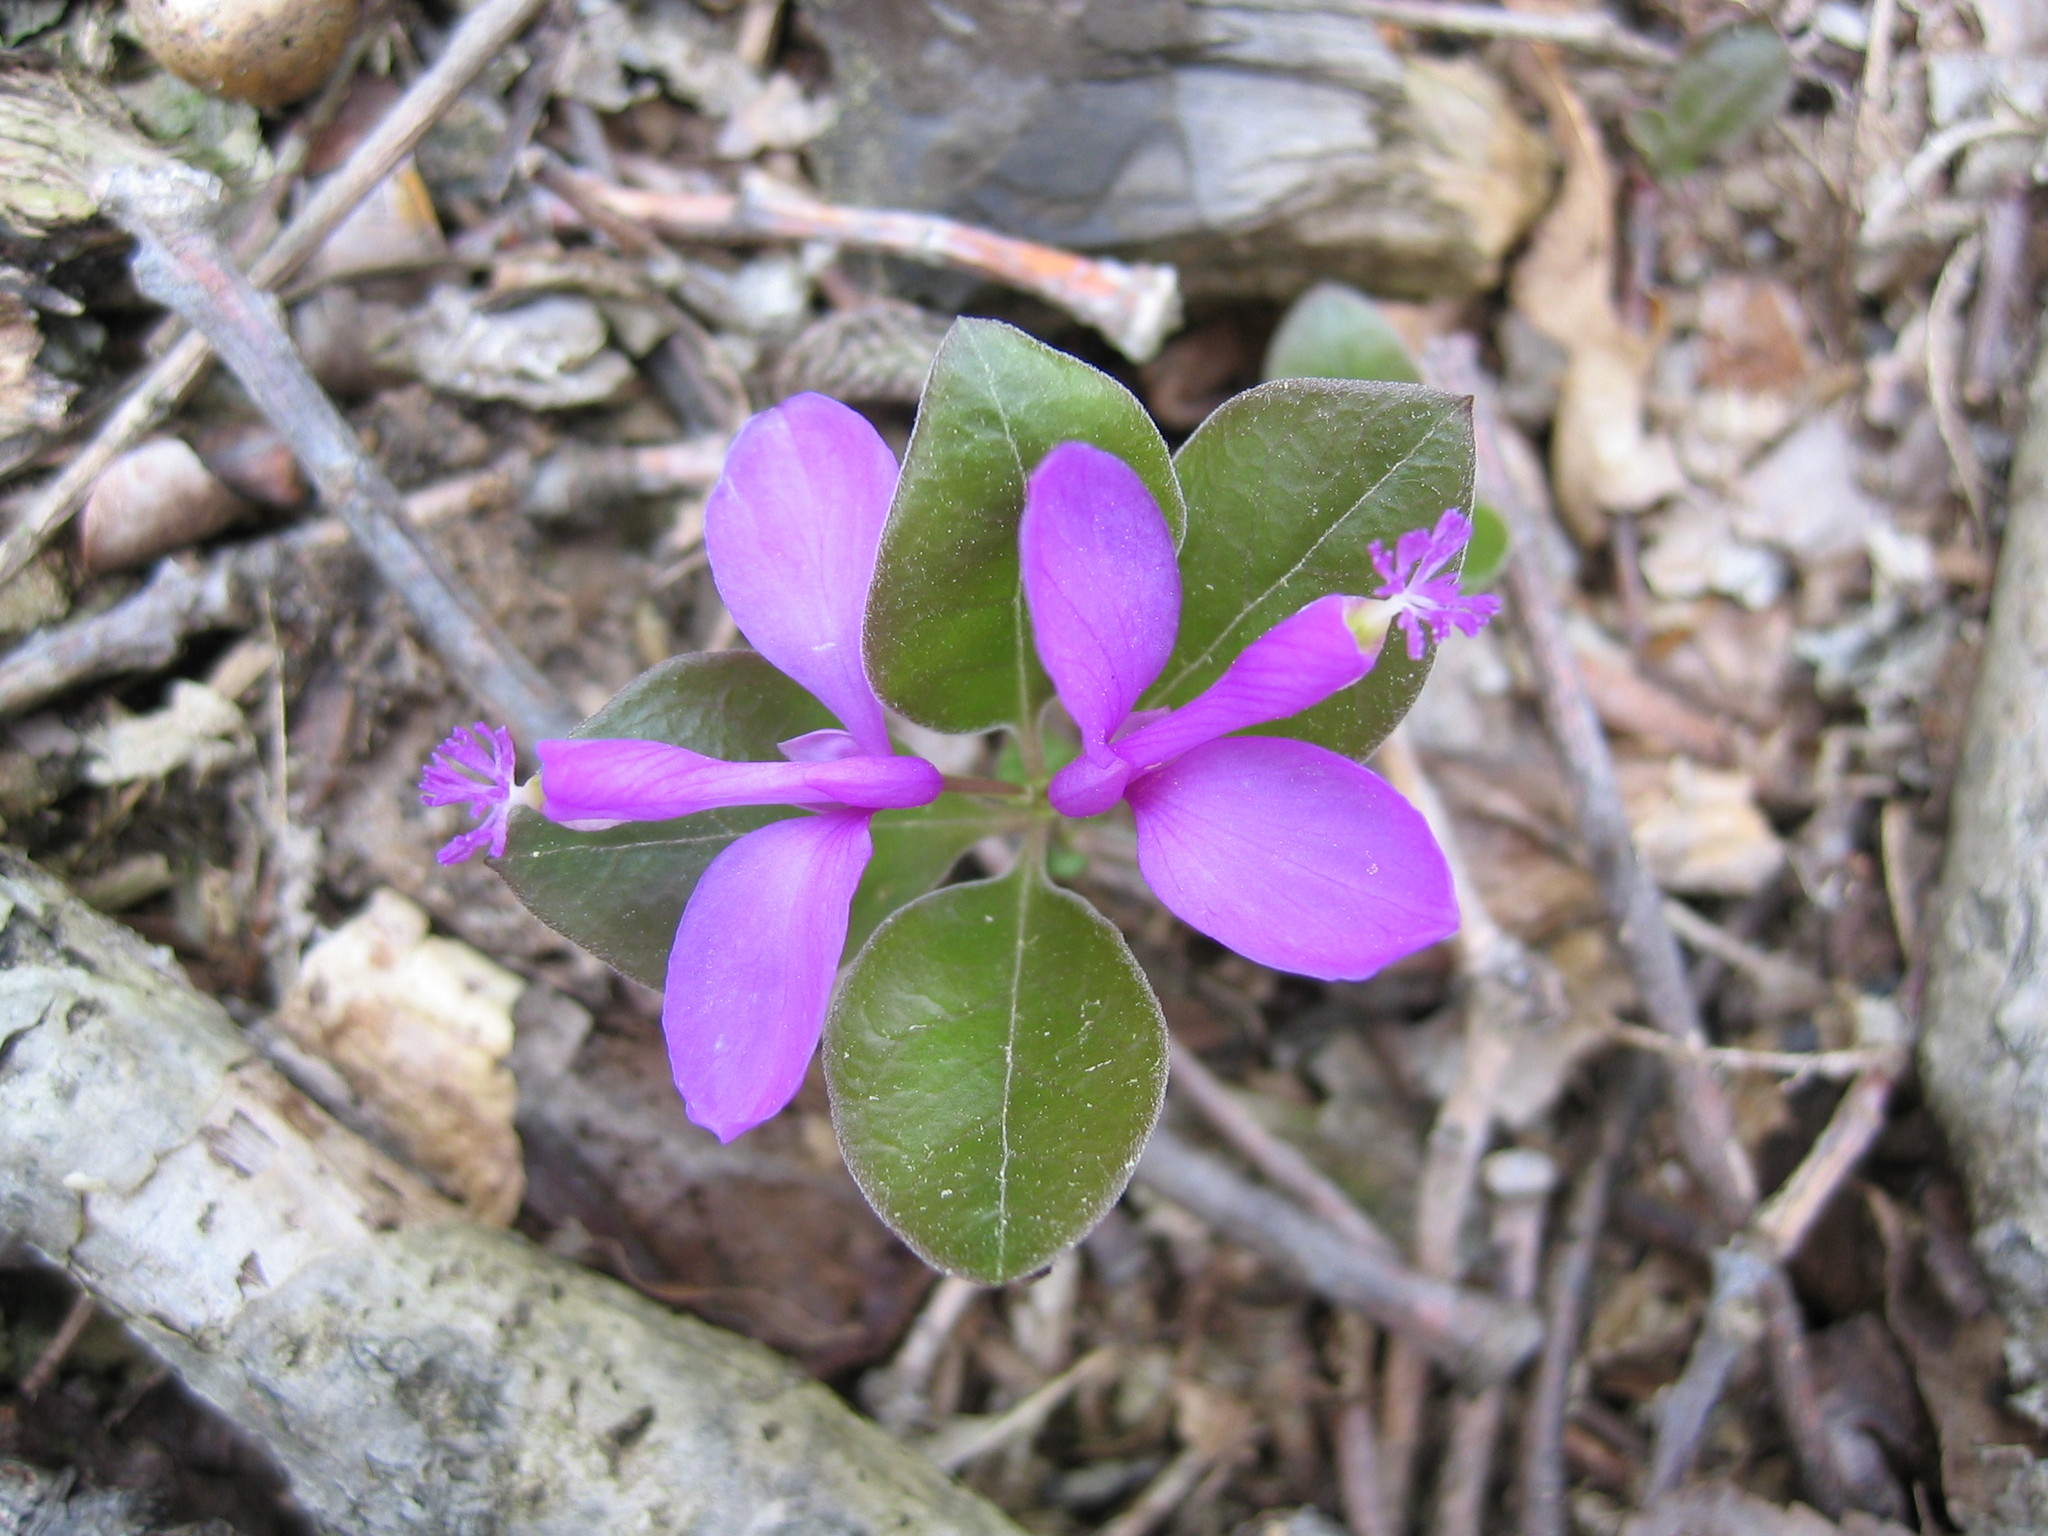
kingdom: Plantae
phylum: Tracheophyta
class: Magnoliopsida
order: Fabales
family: Polygalaceae
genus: Polygaloides
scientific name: Polygaloides paucifolia
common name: Bird-on-the-wing
